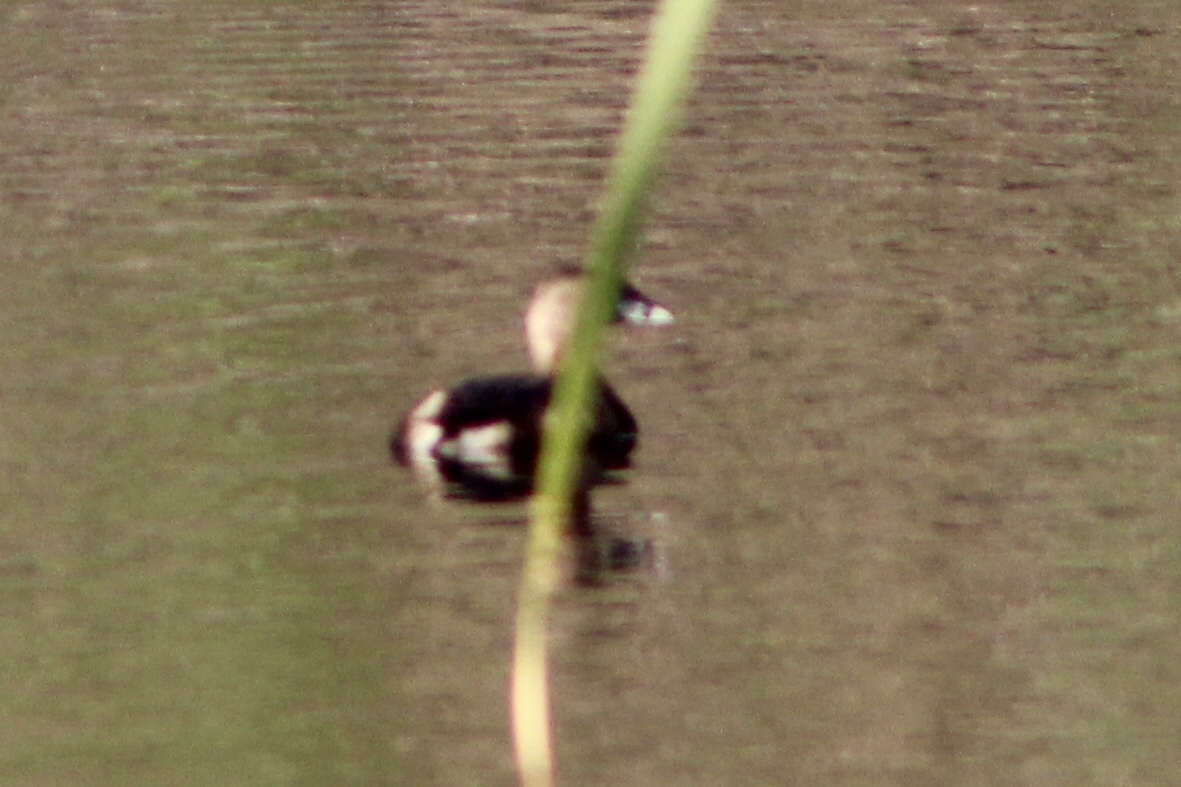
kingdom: Animalia
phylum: Chordata
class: Aves
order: Podicipediformes
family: Podicipedidae
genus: Podilymbus
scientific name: Podilymbus podiceps
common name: Pied-billed grebe
